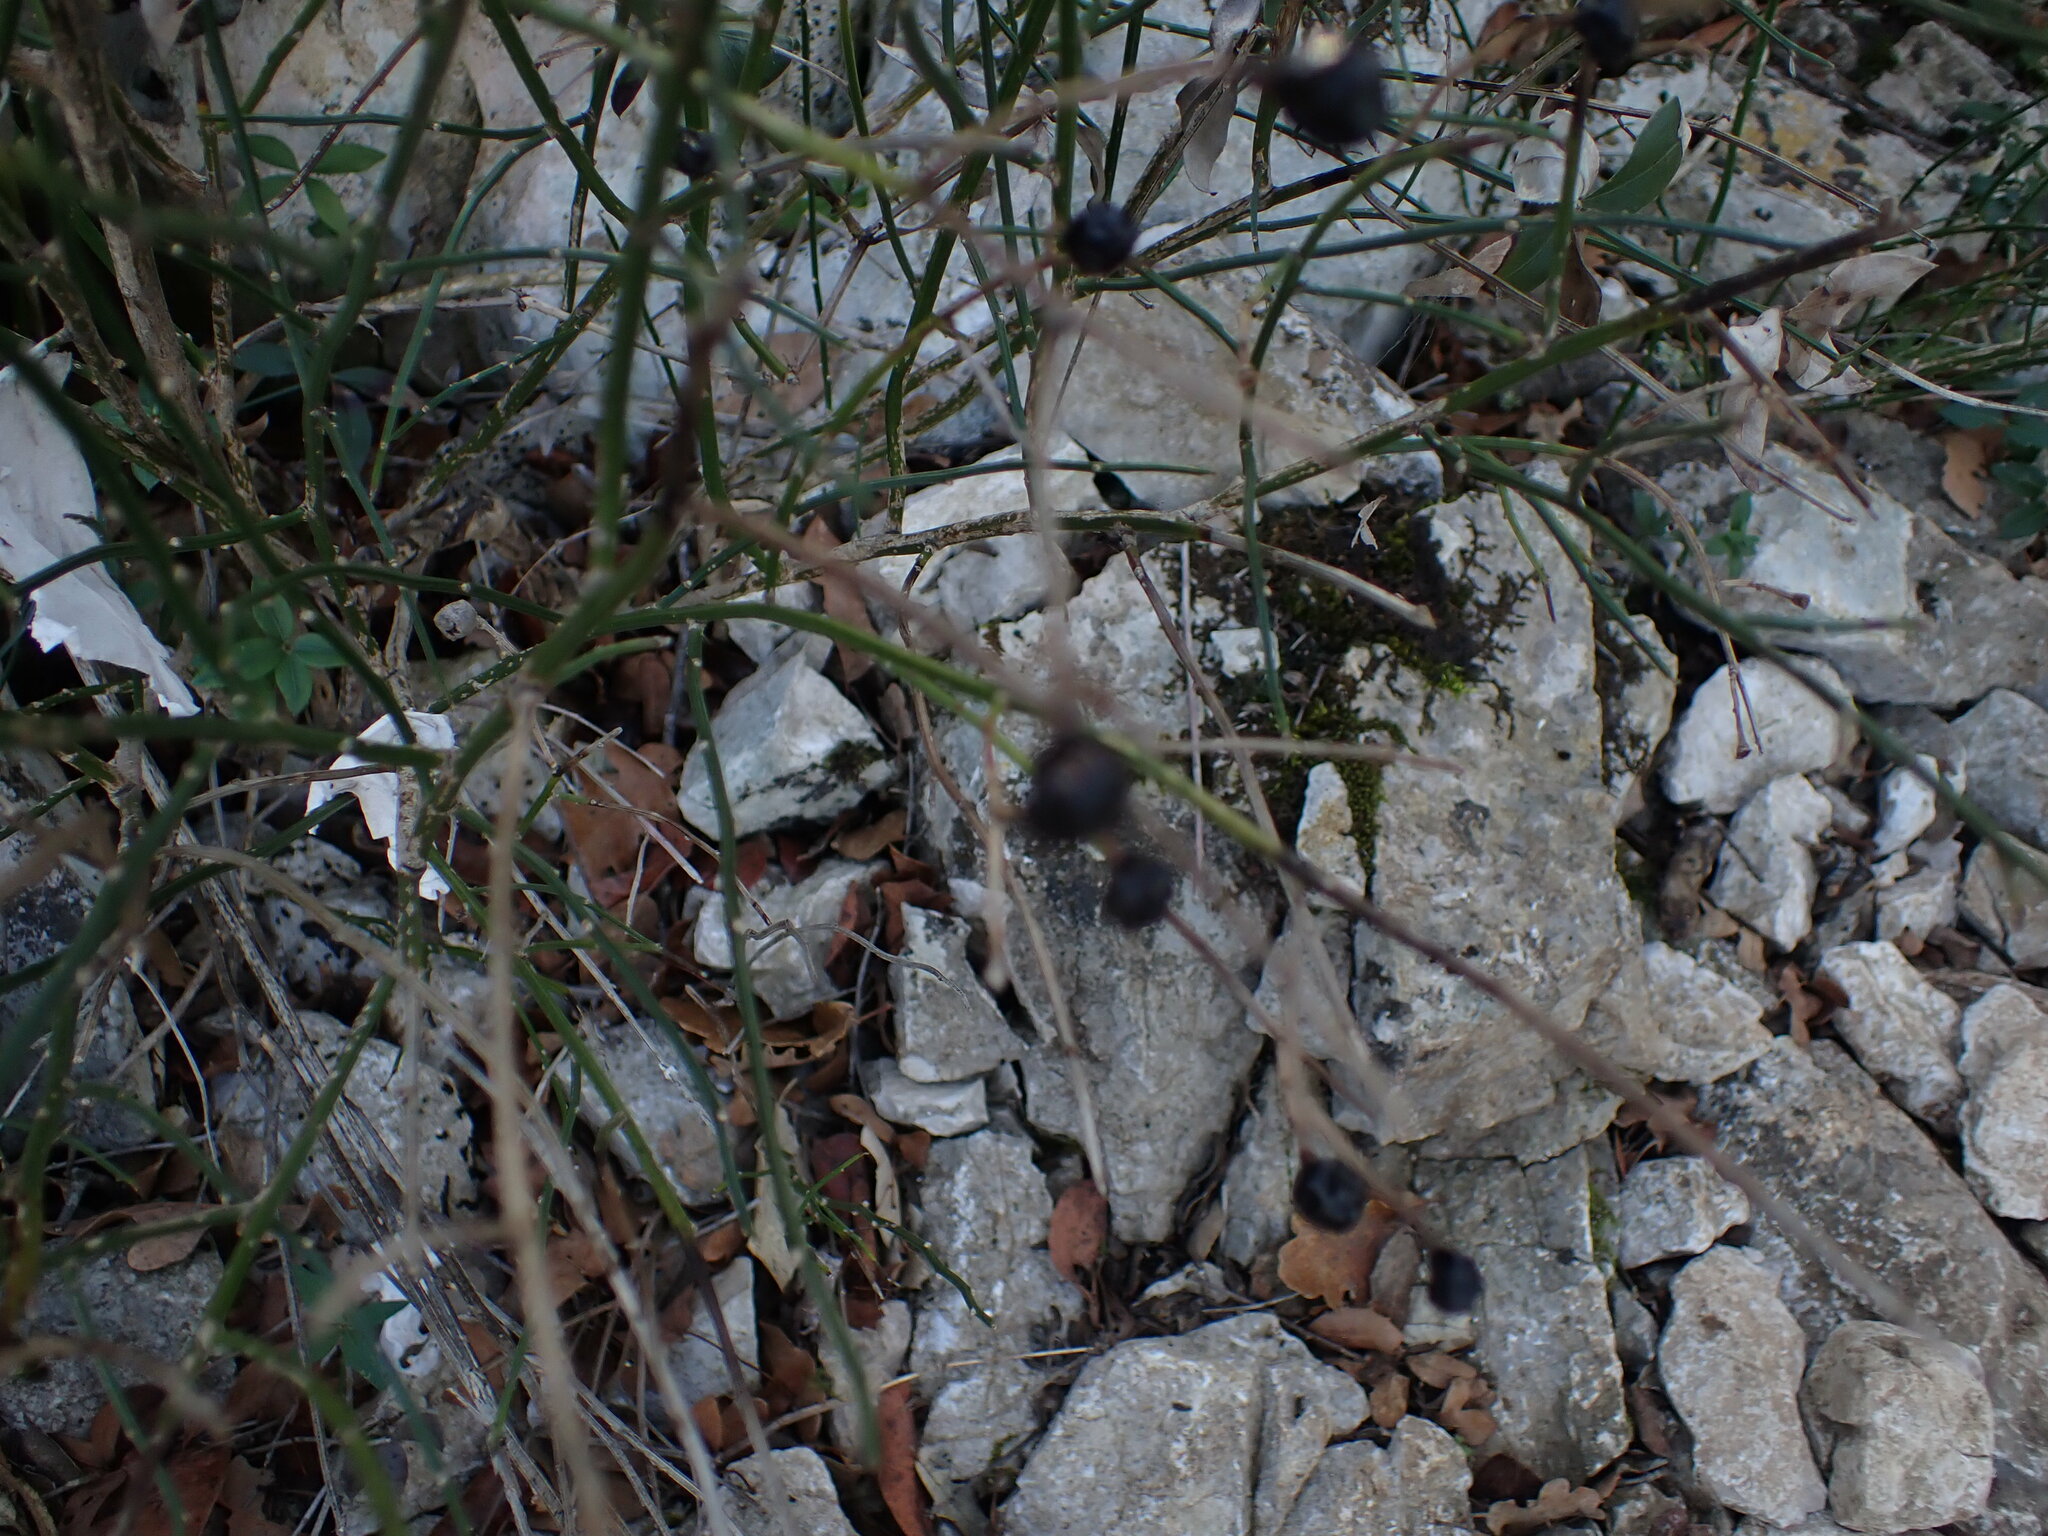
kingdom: Plantae
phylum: Tracheophyta
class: Magnoliopsida
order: Lamiales
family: Oleaceae
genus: Chrysojasminum
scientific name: Chrysojasminum fruticans
